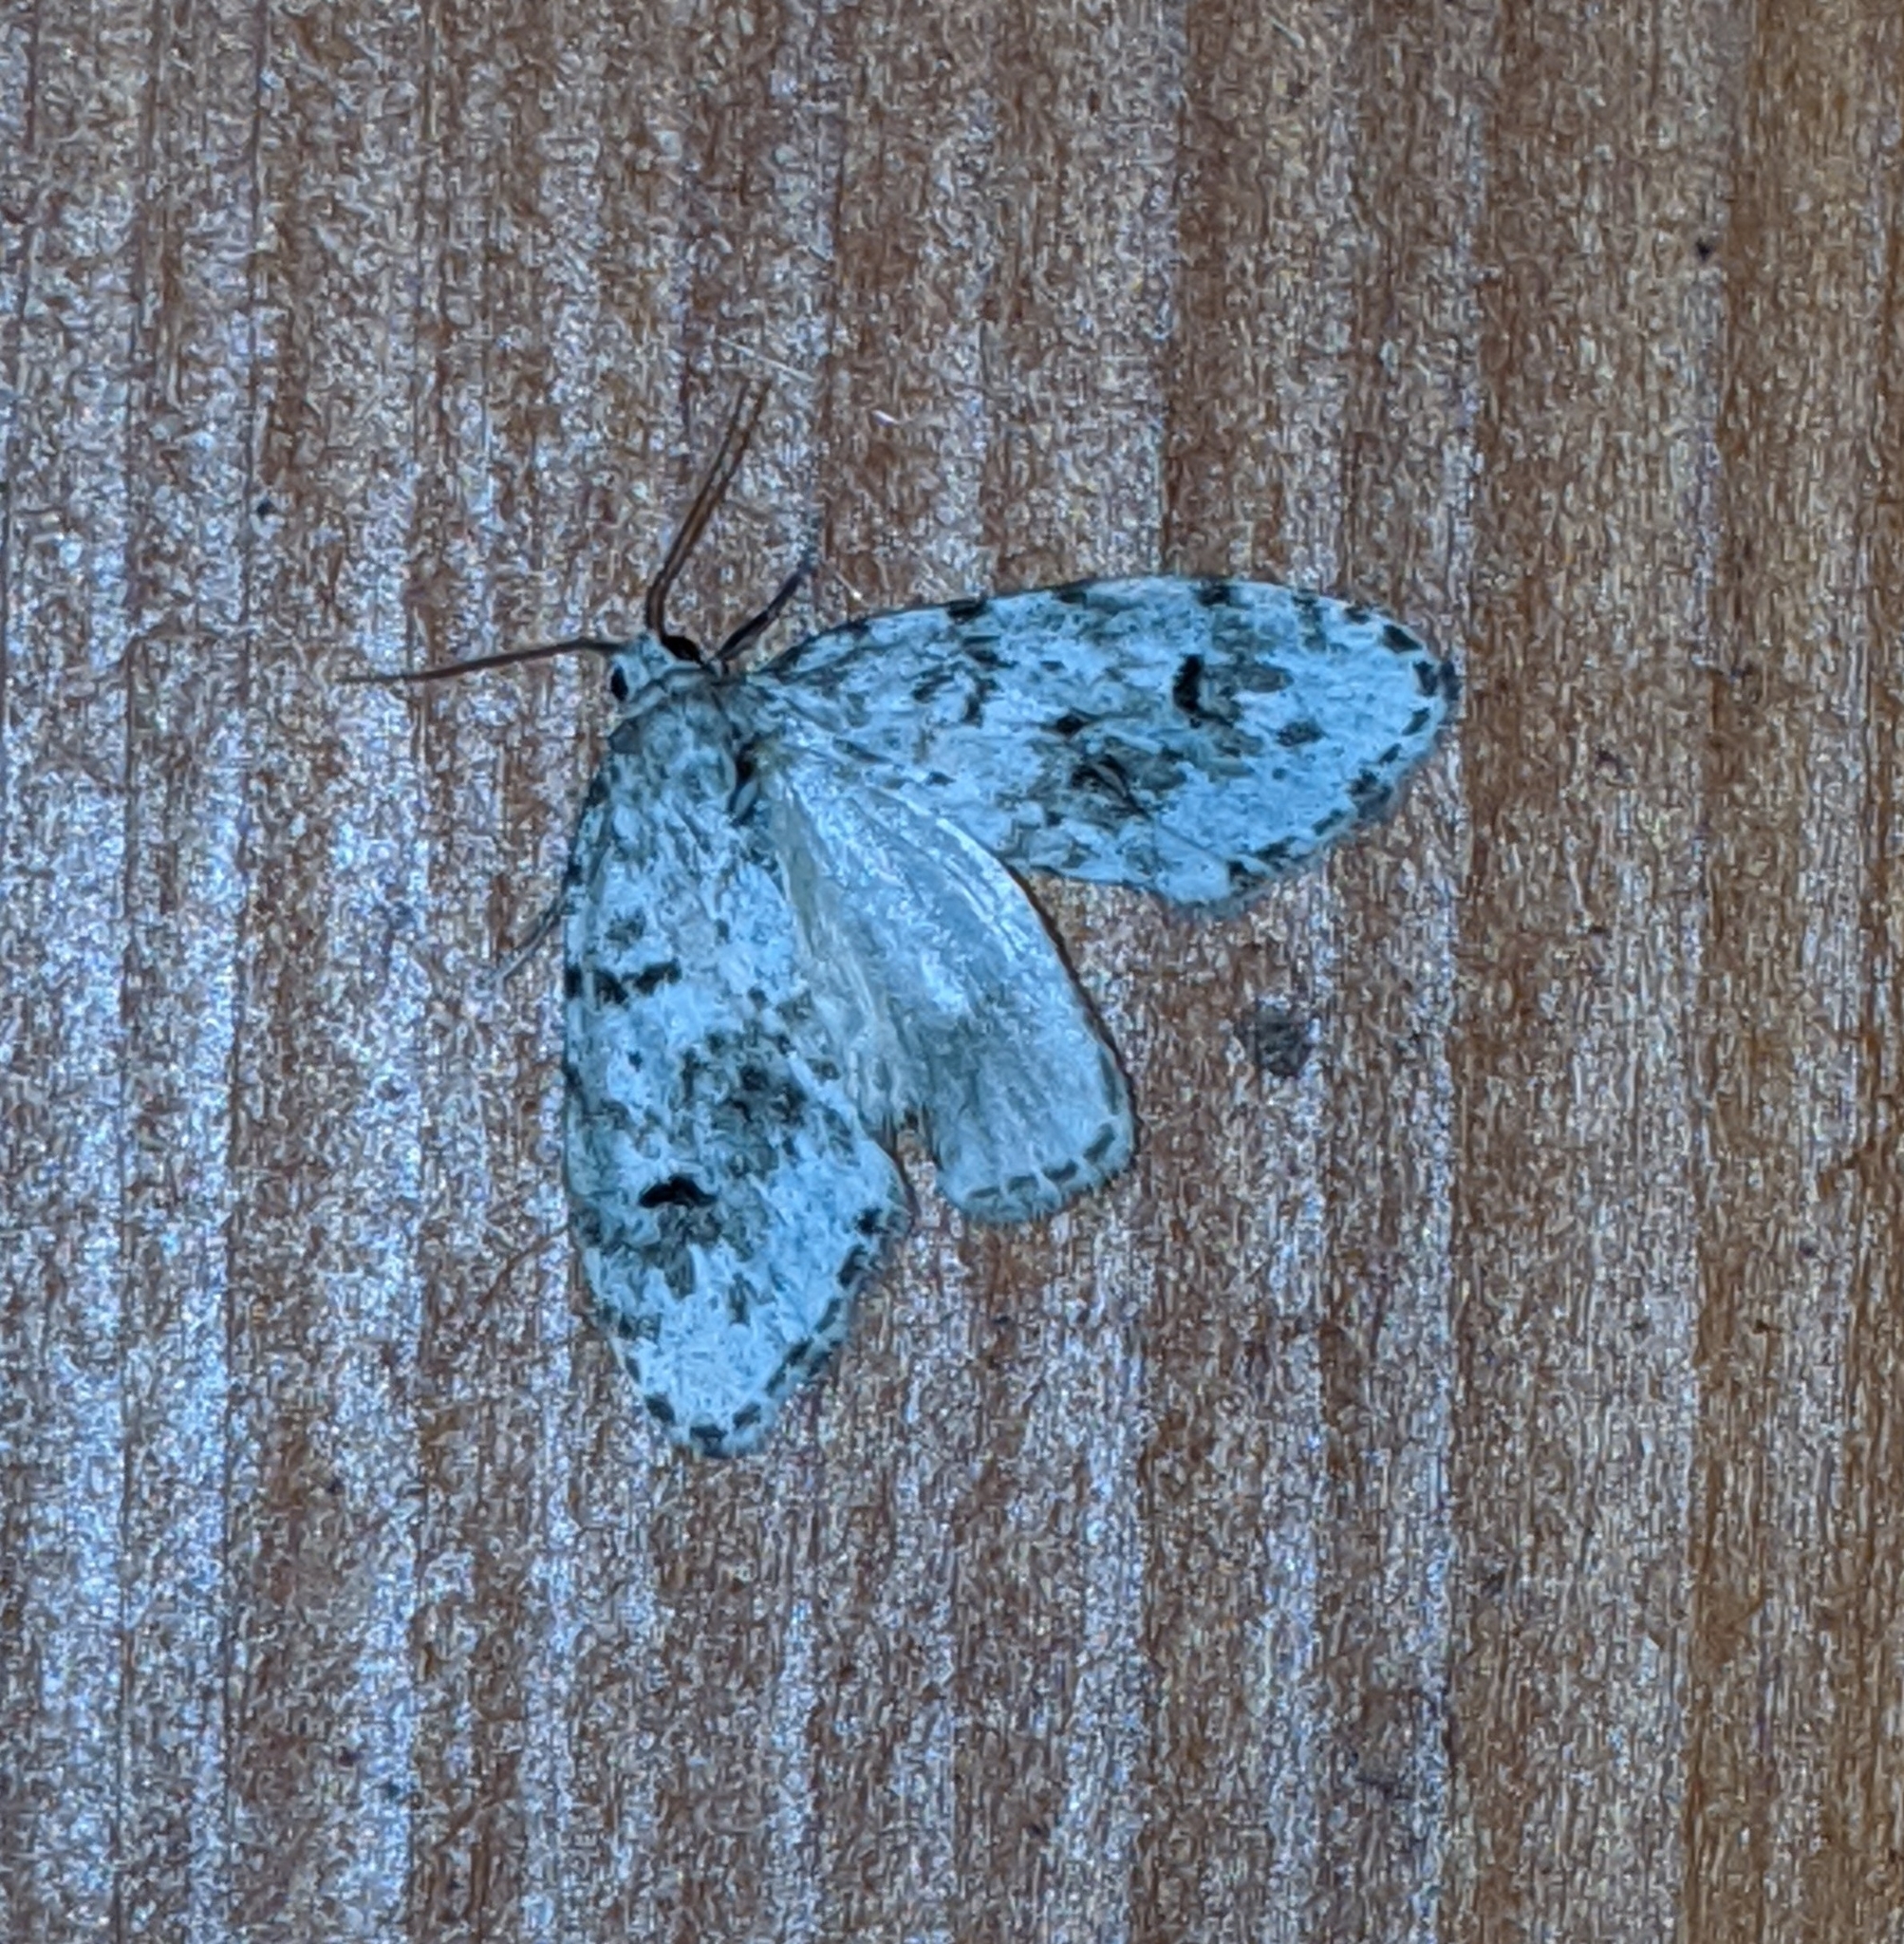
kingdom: Animalia
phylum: Arthropoda
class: Insecta
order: Lepidoptera
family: Erebidae
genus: Clemensia
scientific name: Clemensia umbrata
